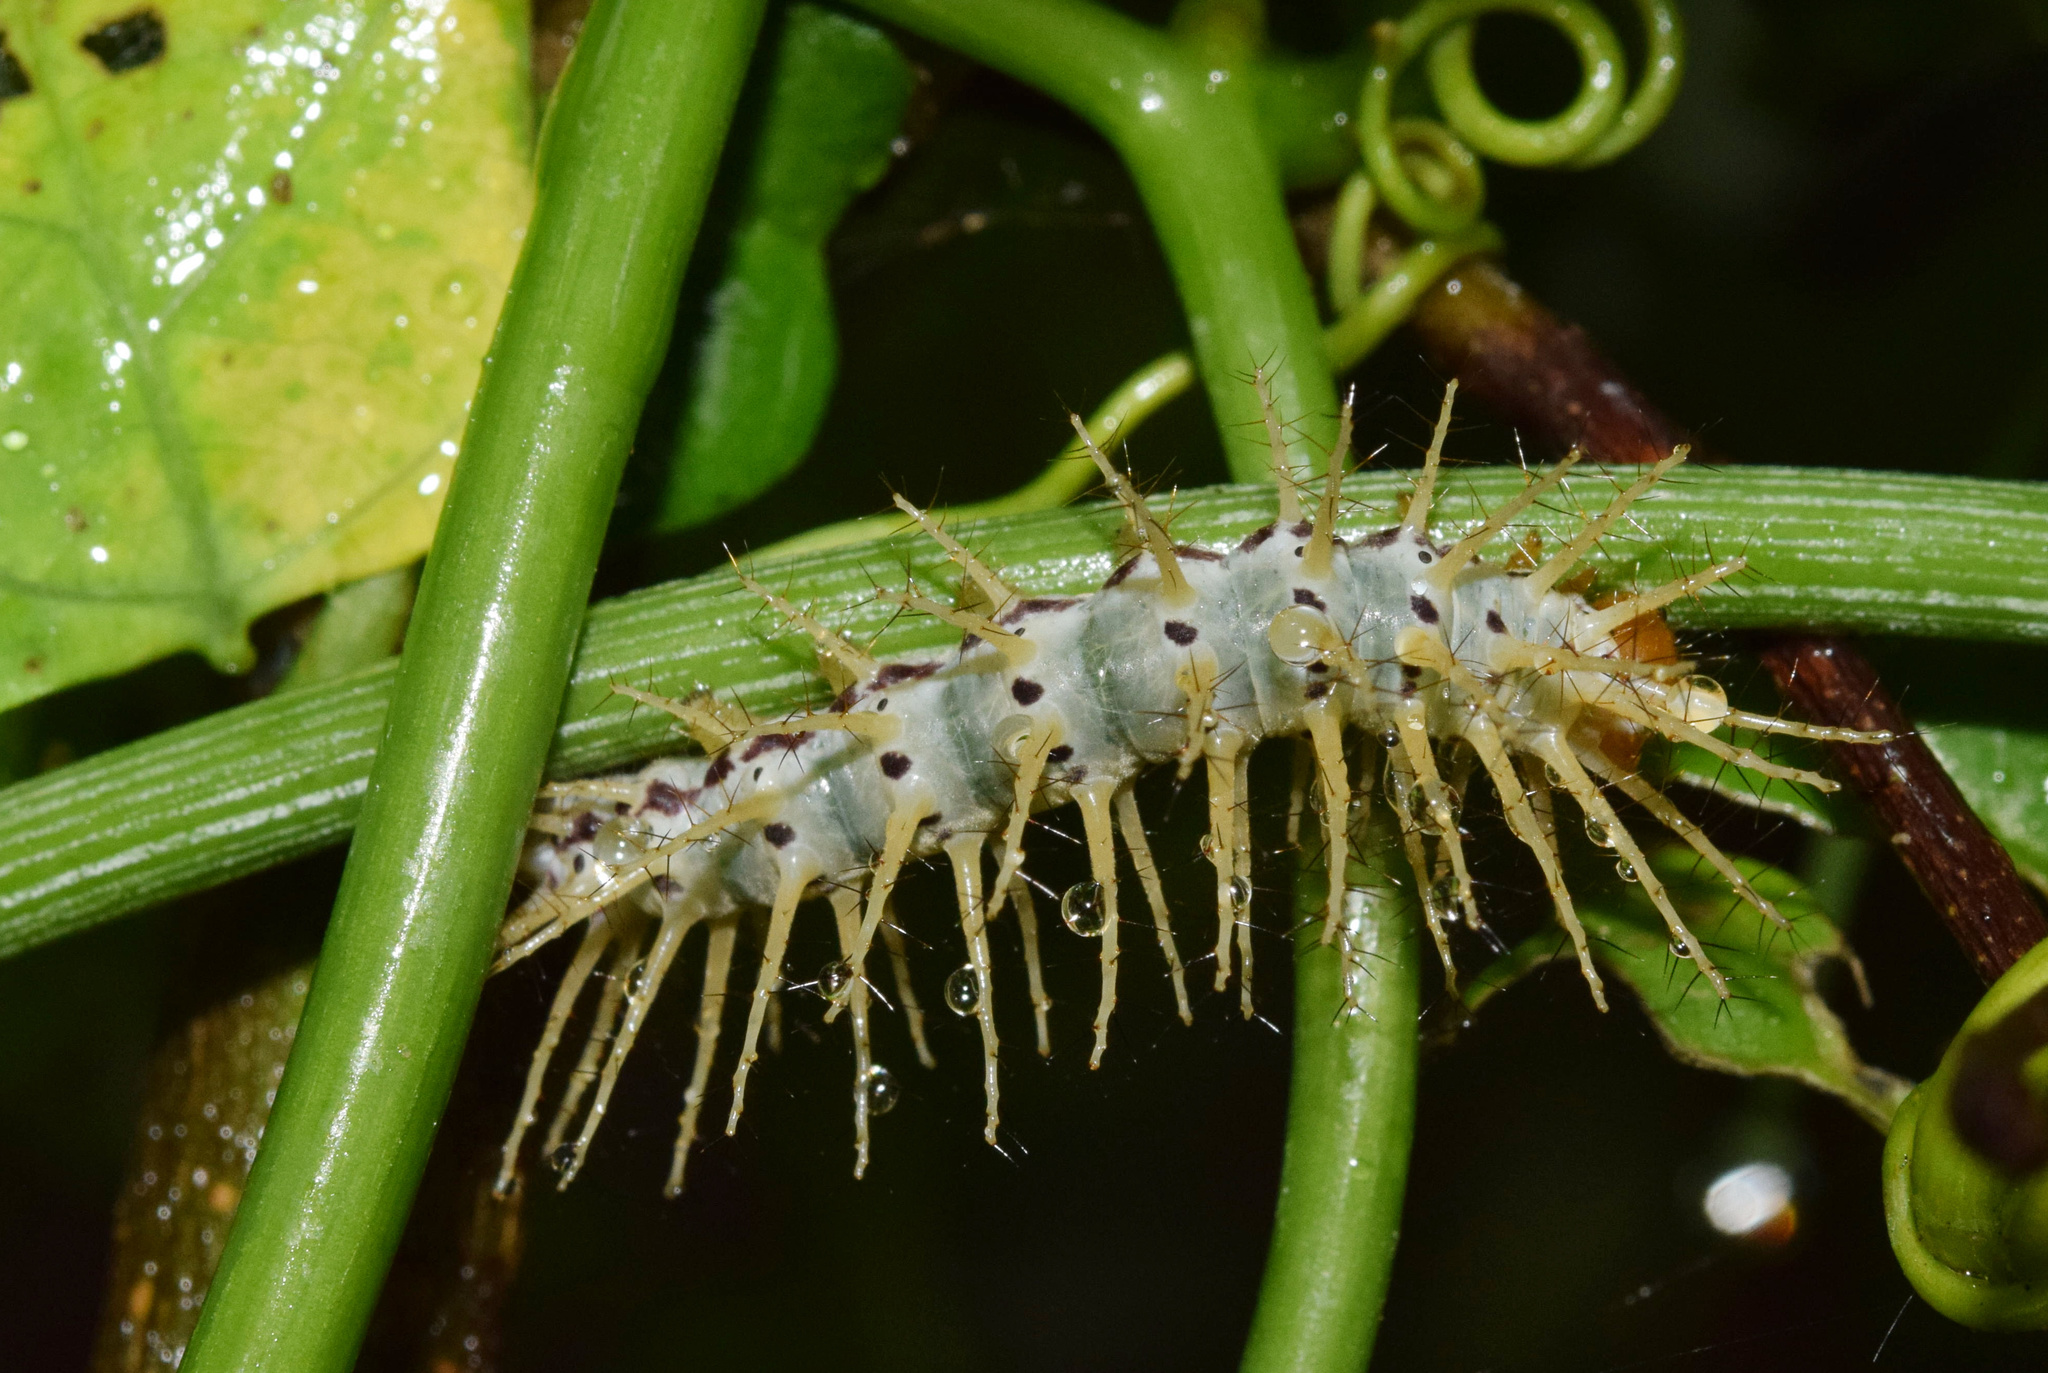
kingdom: Animalia
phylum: Arthropoda
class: Insecta
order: Lepidoptera
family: Nymphalidae
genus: Acraea
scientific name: Acraea Bematistes aganice
